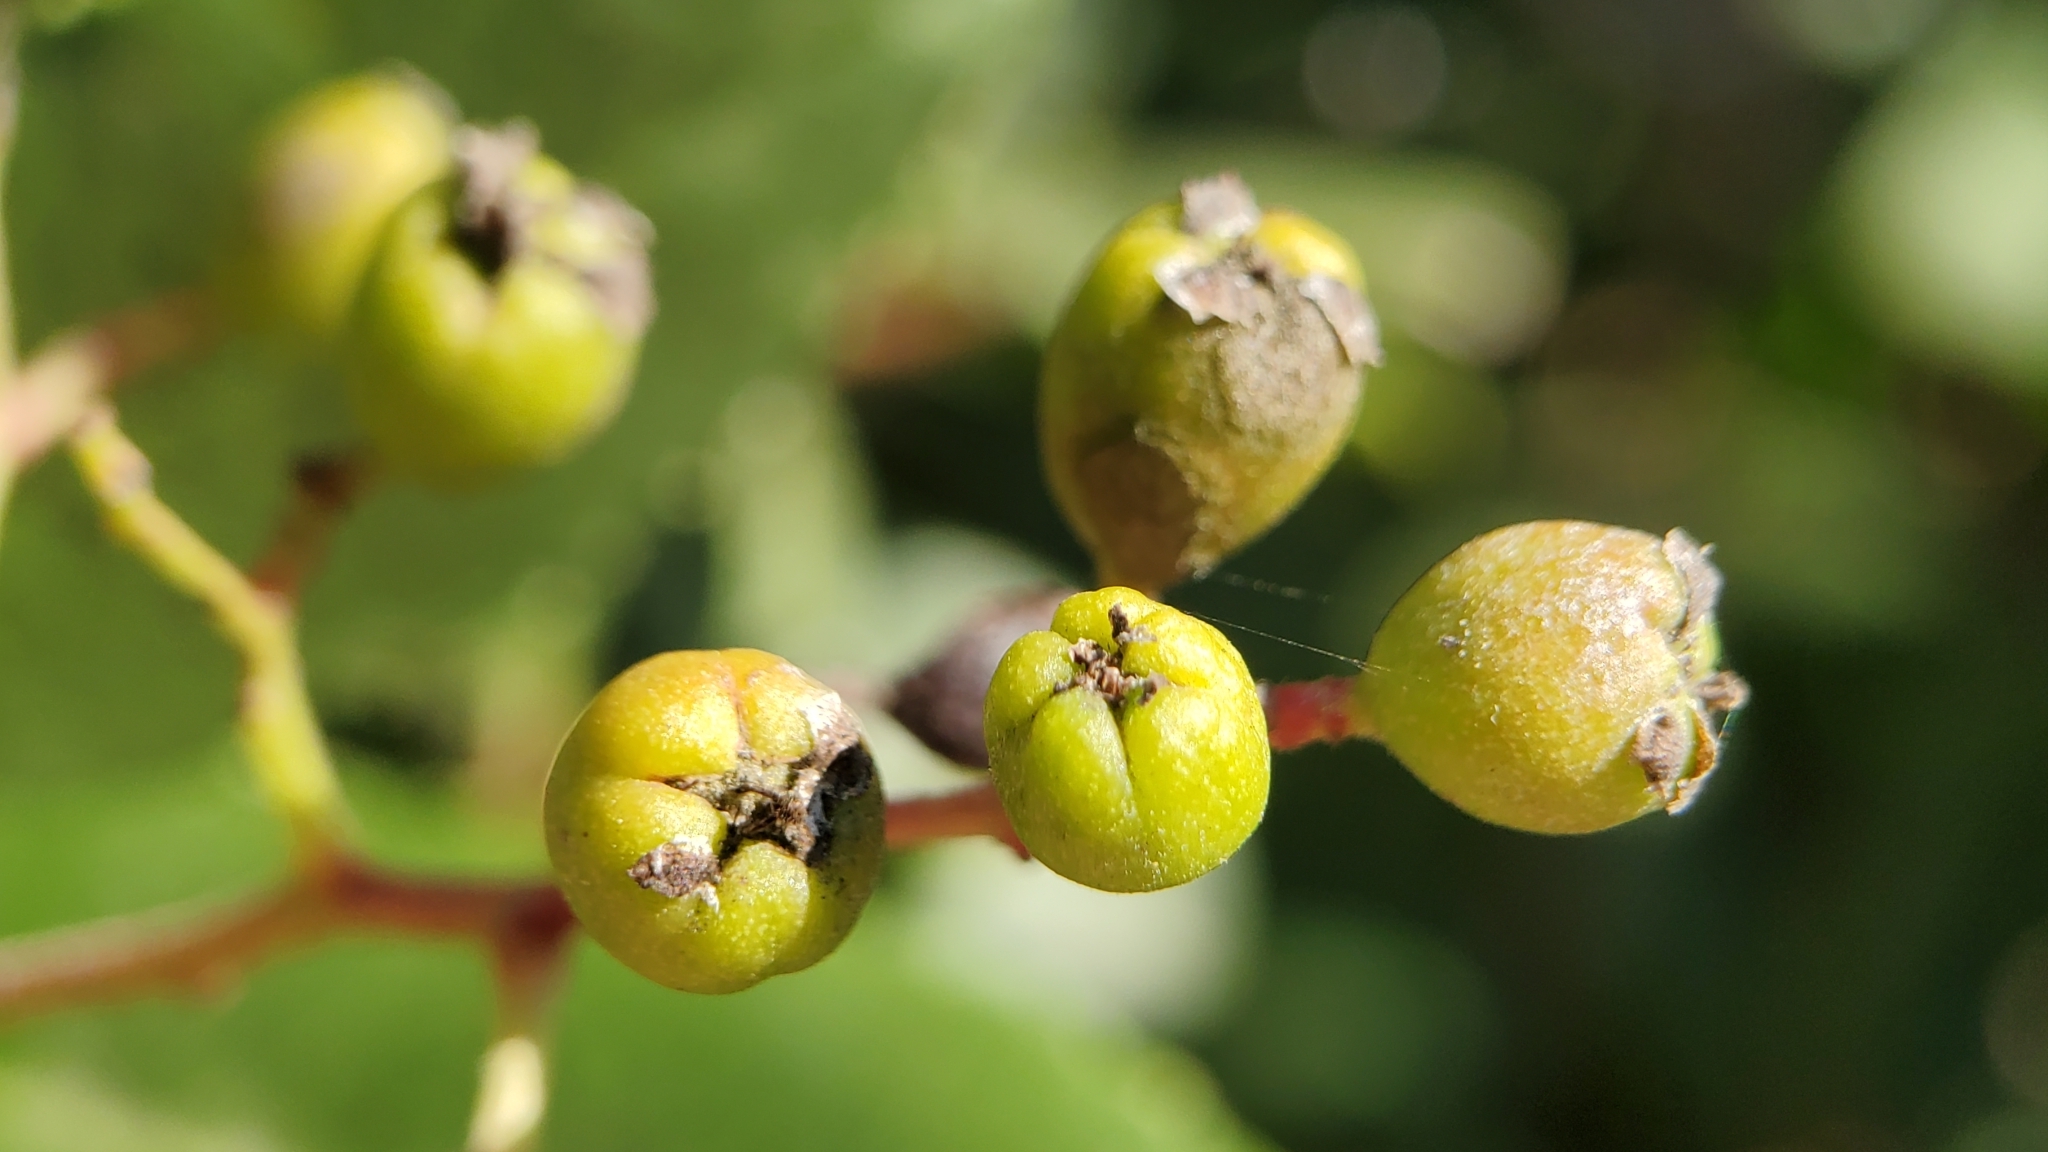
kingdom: Plantae
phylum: Tracheophyta
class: Magnoliopsida
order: Rosales
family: Rosaceae
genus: Heteromeles
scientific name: Heteromeles arbutifolia
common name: California-holly
